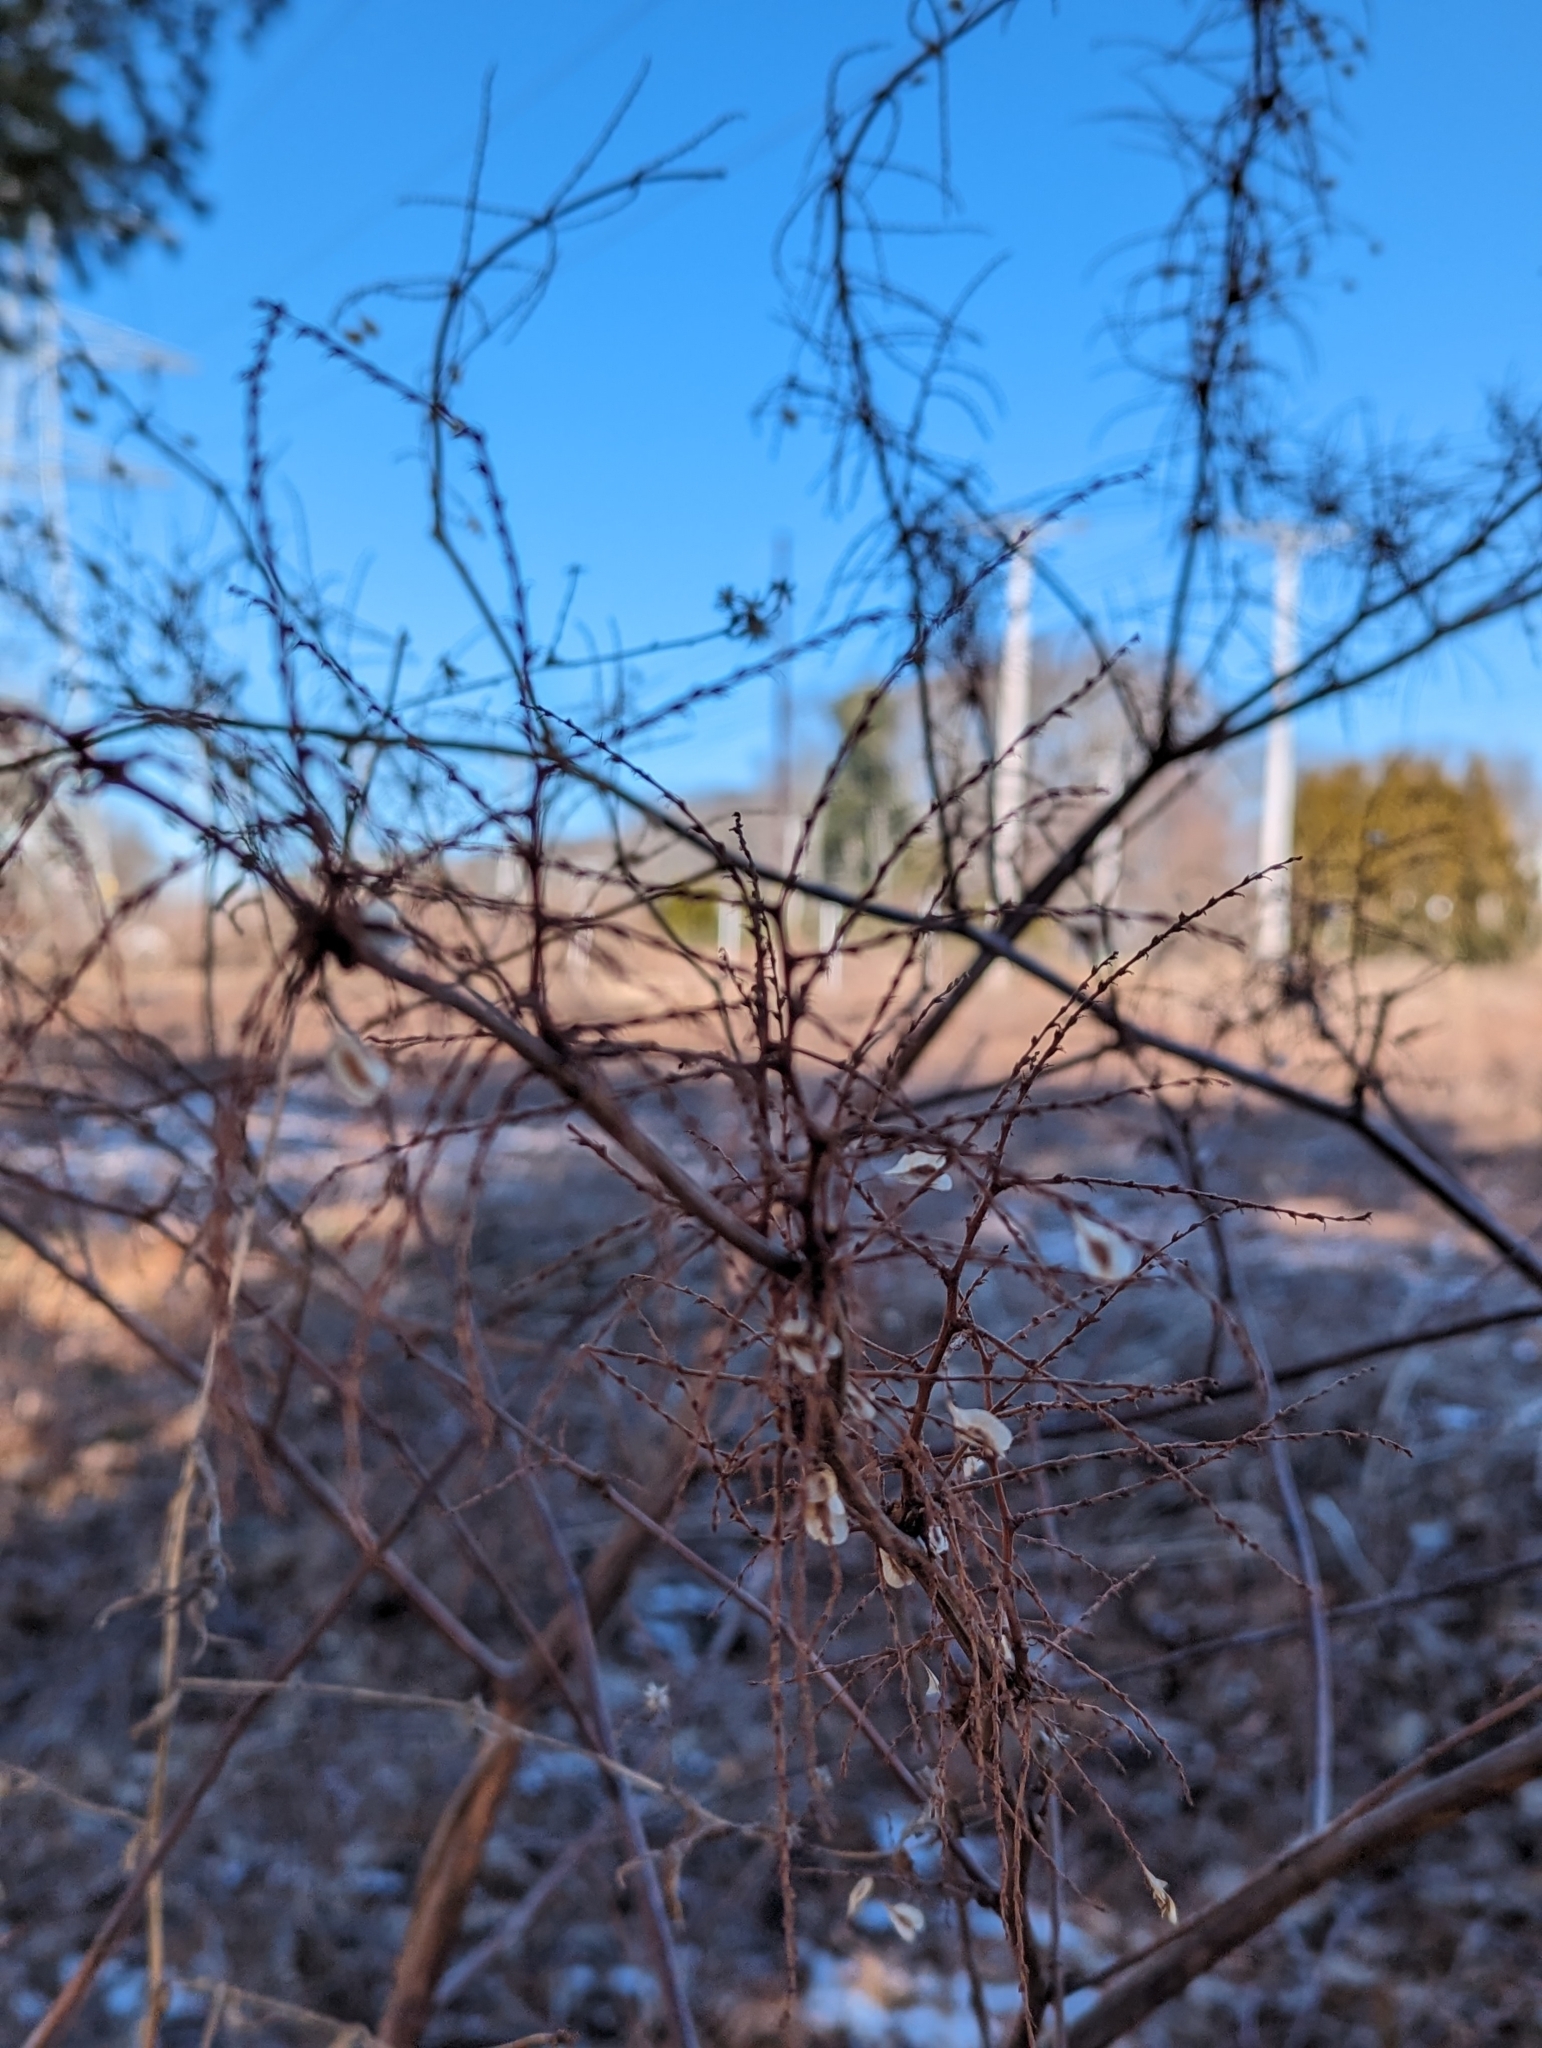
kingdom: Plantae
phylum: Tracheophyta
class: Magnoliopsida
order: Caryophyllales
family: Polygonaceae
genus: Reynoutria
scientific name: Reynoutria japonica
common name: Japanese knotweed
